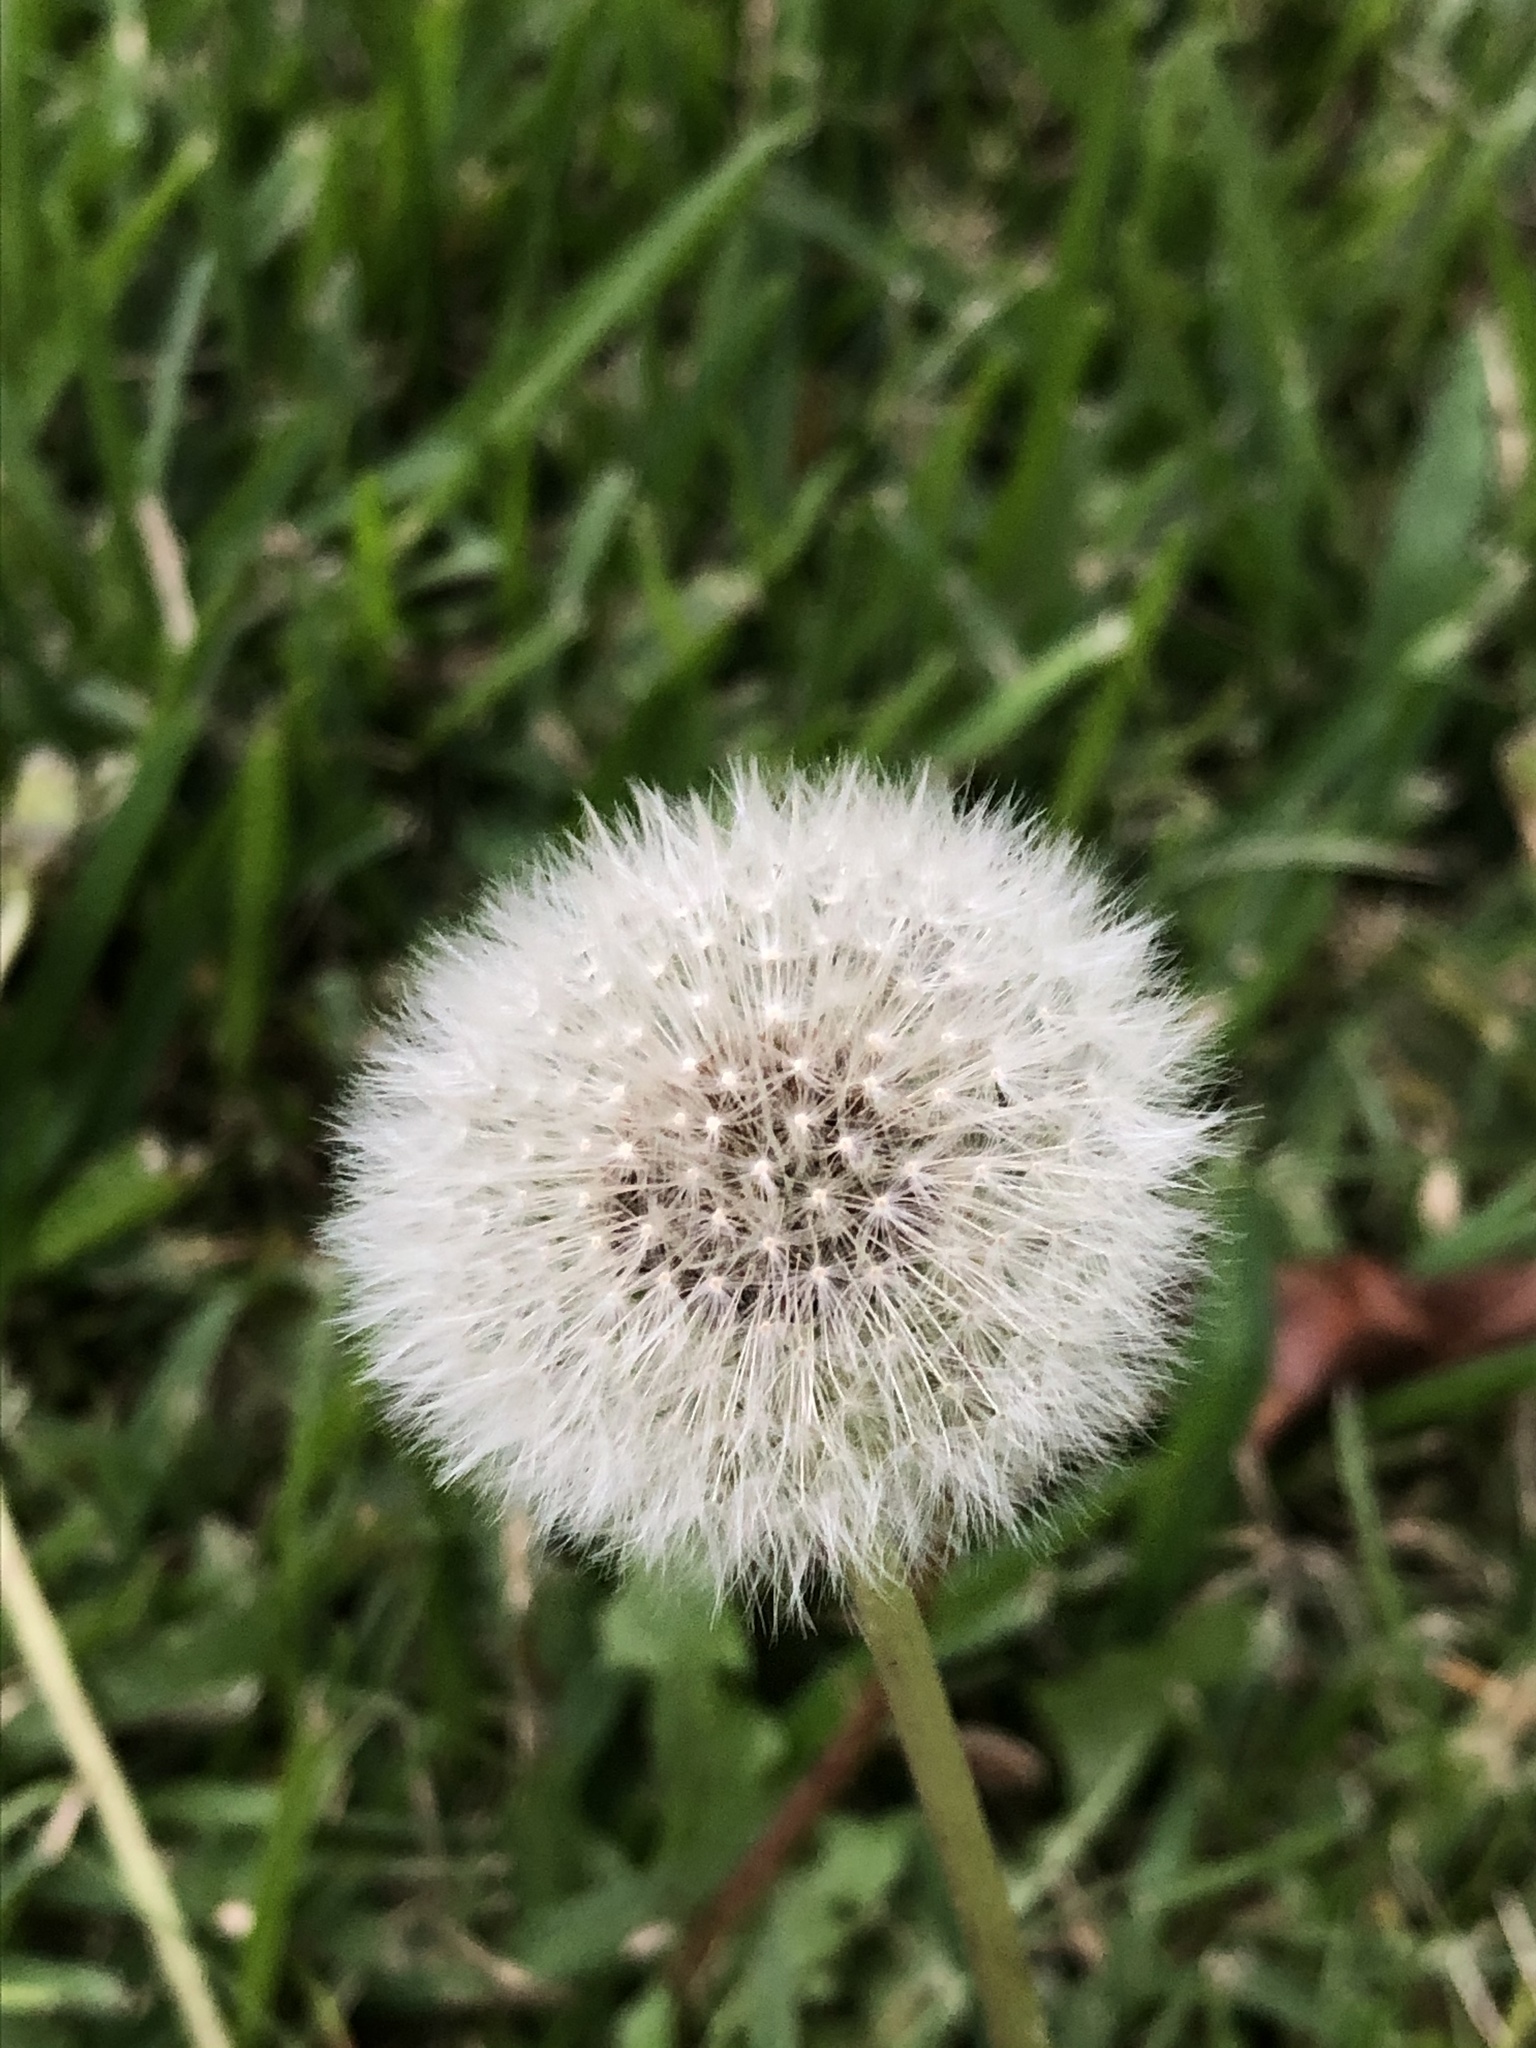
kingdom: Plantae
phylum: Tracheophyta
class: Magnoliopsida
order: Asterales
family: Asteraceae
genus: Taraxacum
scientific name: Taraxacum officinale
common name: Common dandelion
